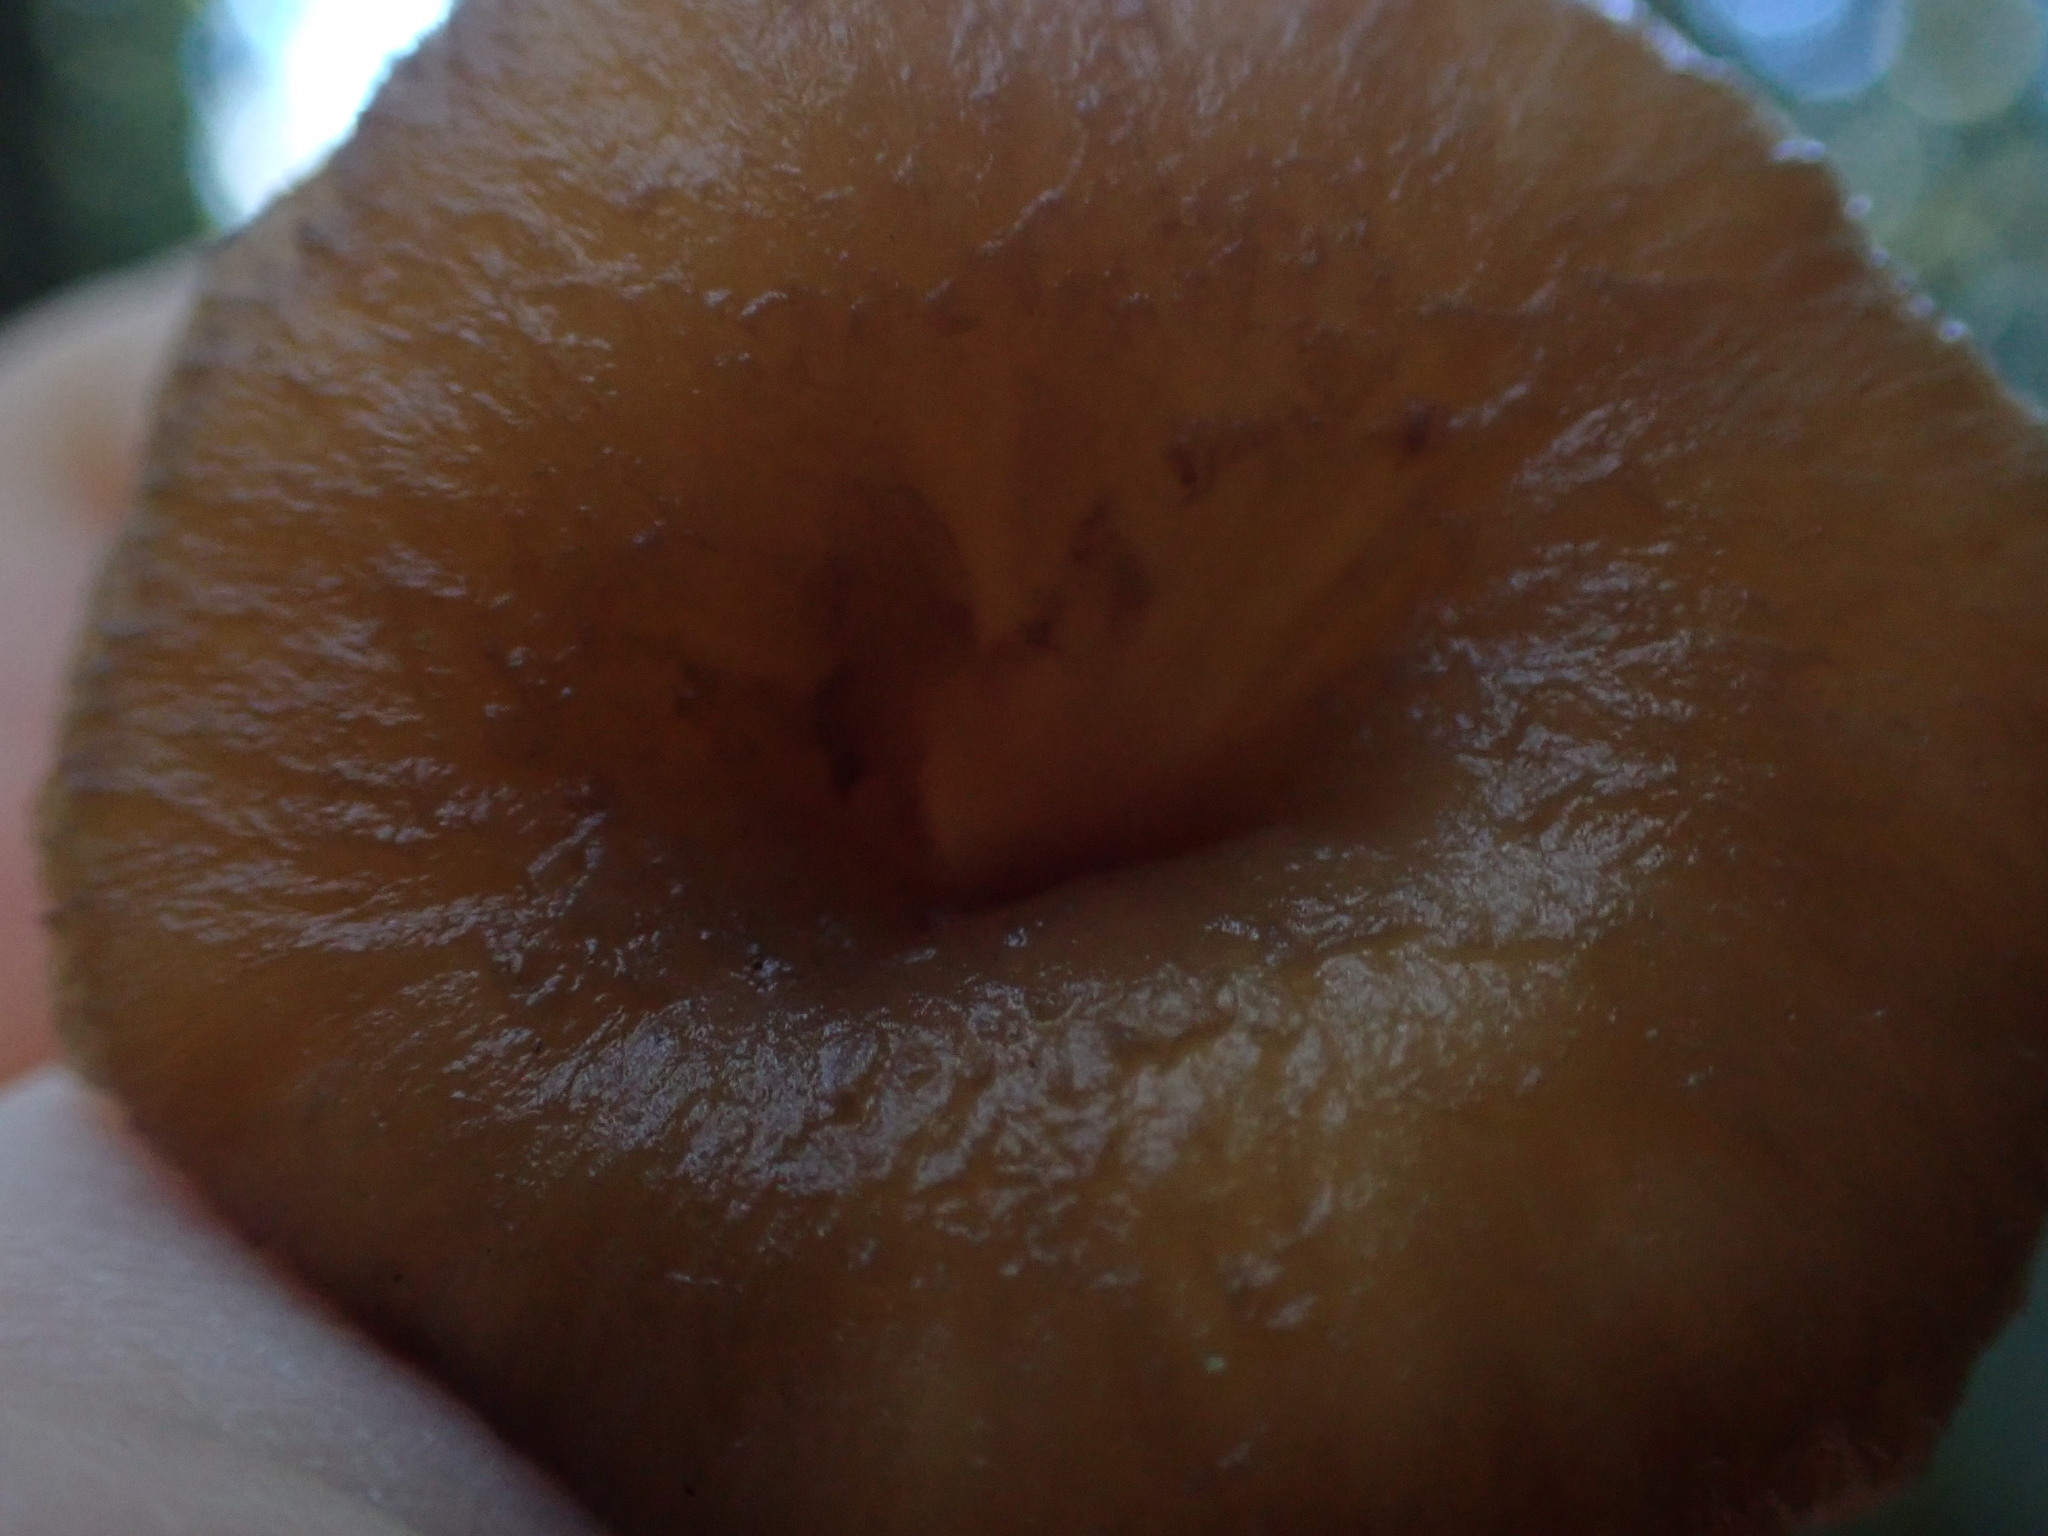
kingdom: Fungi
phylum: Basidiomycota
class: Agaricomycetes
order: Cantharellales
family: Hydnaceae
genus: Craterellus
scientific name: Craterellus tubaeformis
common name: Yellowfoot
